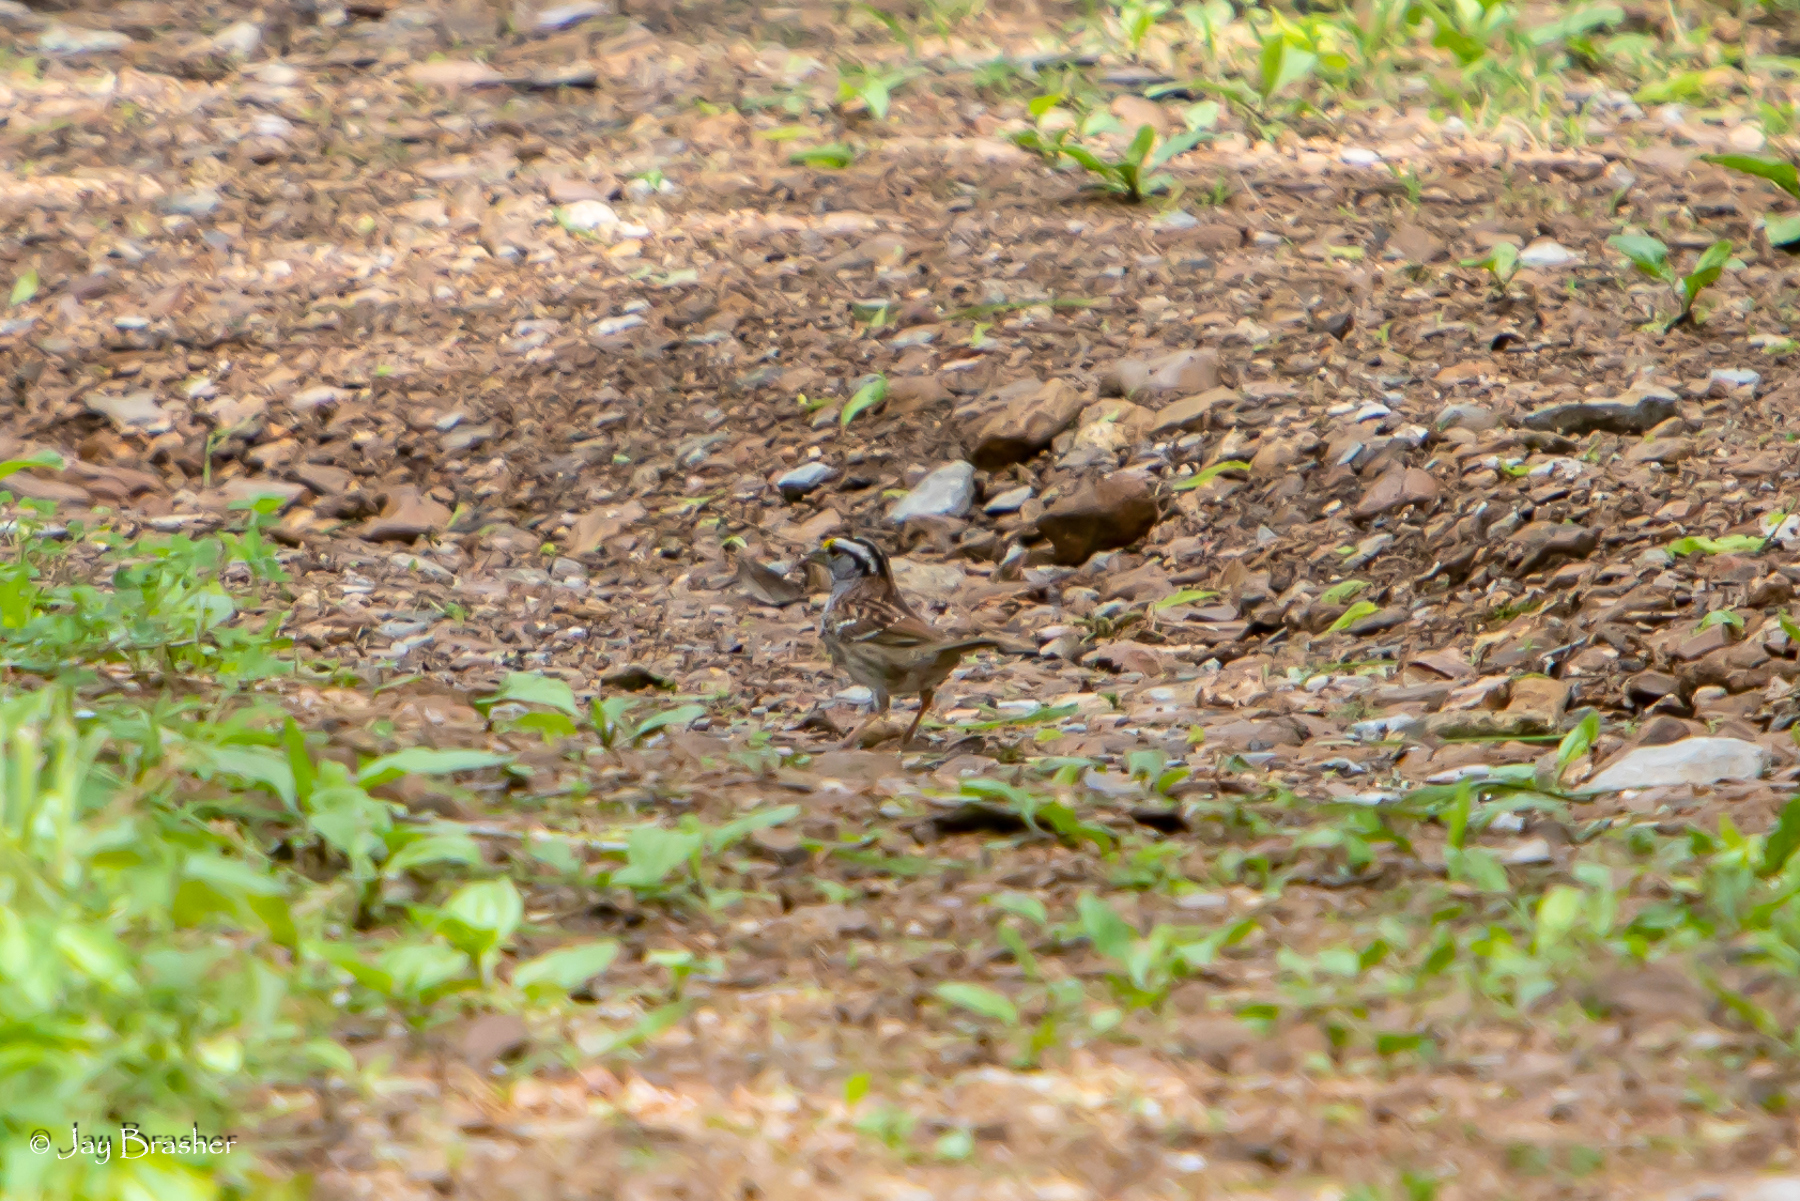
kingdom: Animalia
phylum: Chordata
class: Aves
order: Passeriformes
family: Passerellidae
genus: Zonotrichia
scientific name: Zonotrichia albicollis
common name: White-throated sparrow
